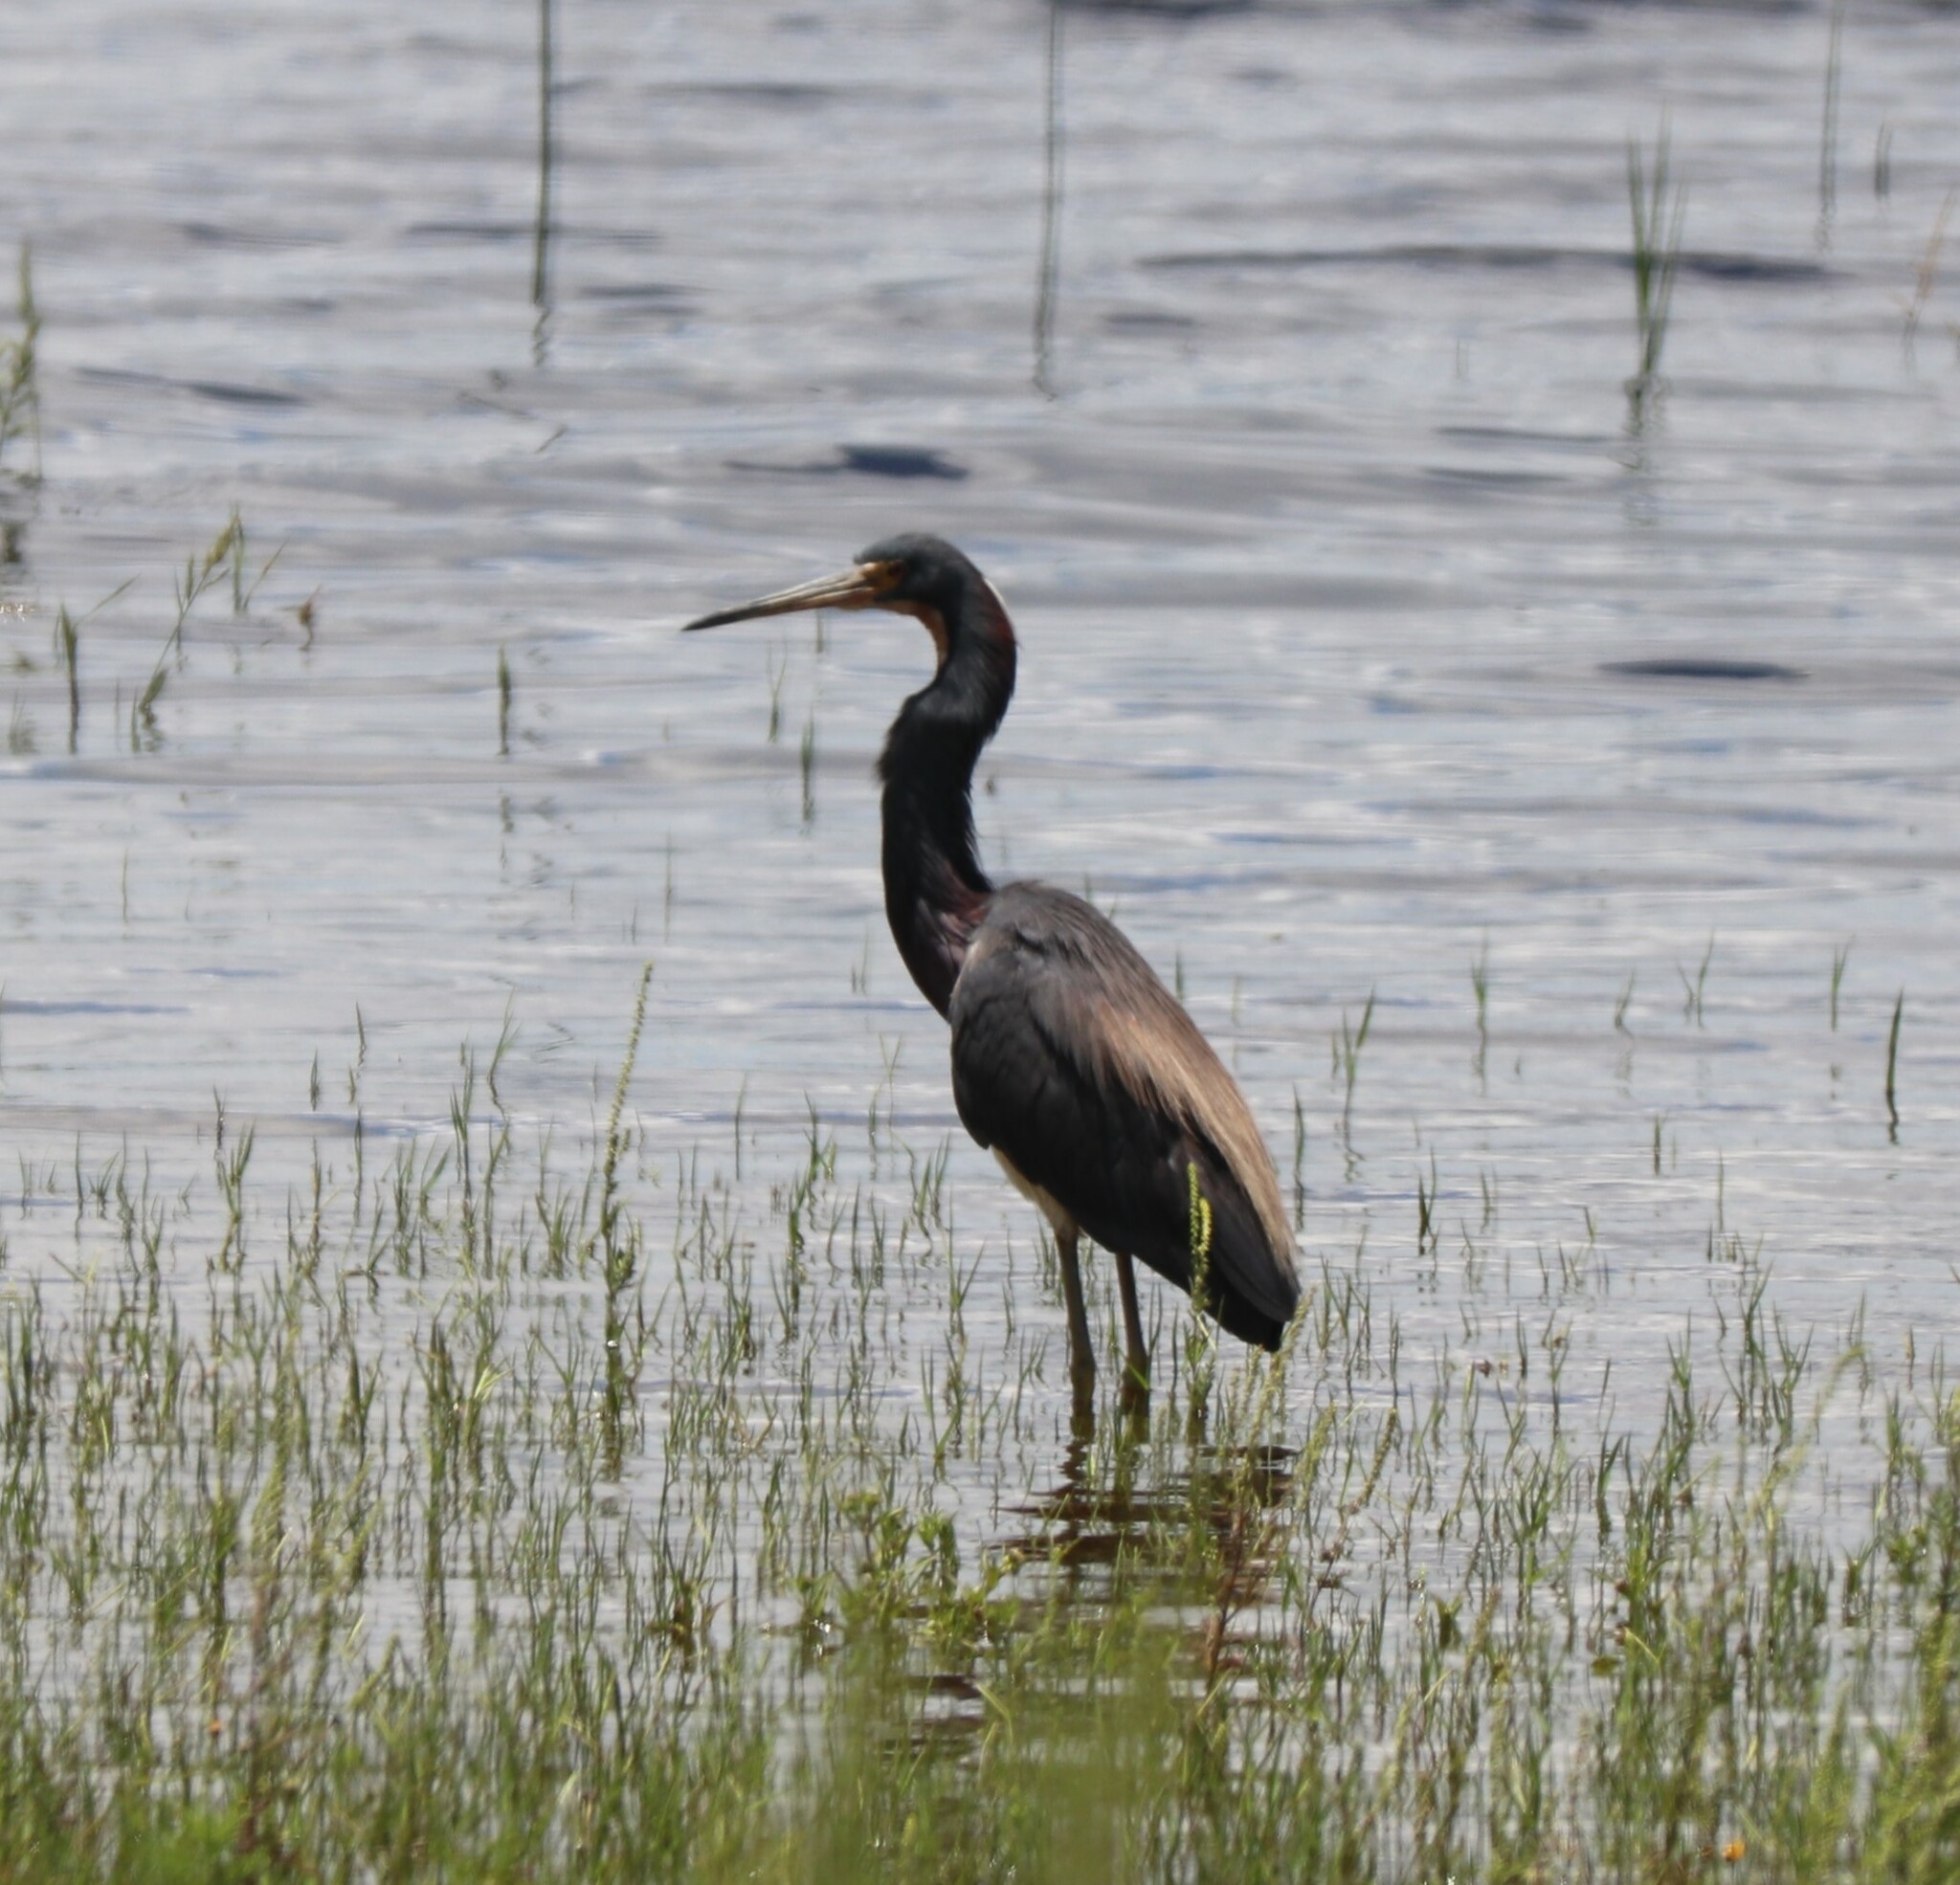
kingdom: Animalia
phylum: Chordata
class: Aves
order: Pelecaniformes
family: Ardeidae
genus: Egretta
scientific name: Egretta tricolor
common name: Tricolored heron
